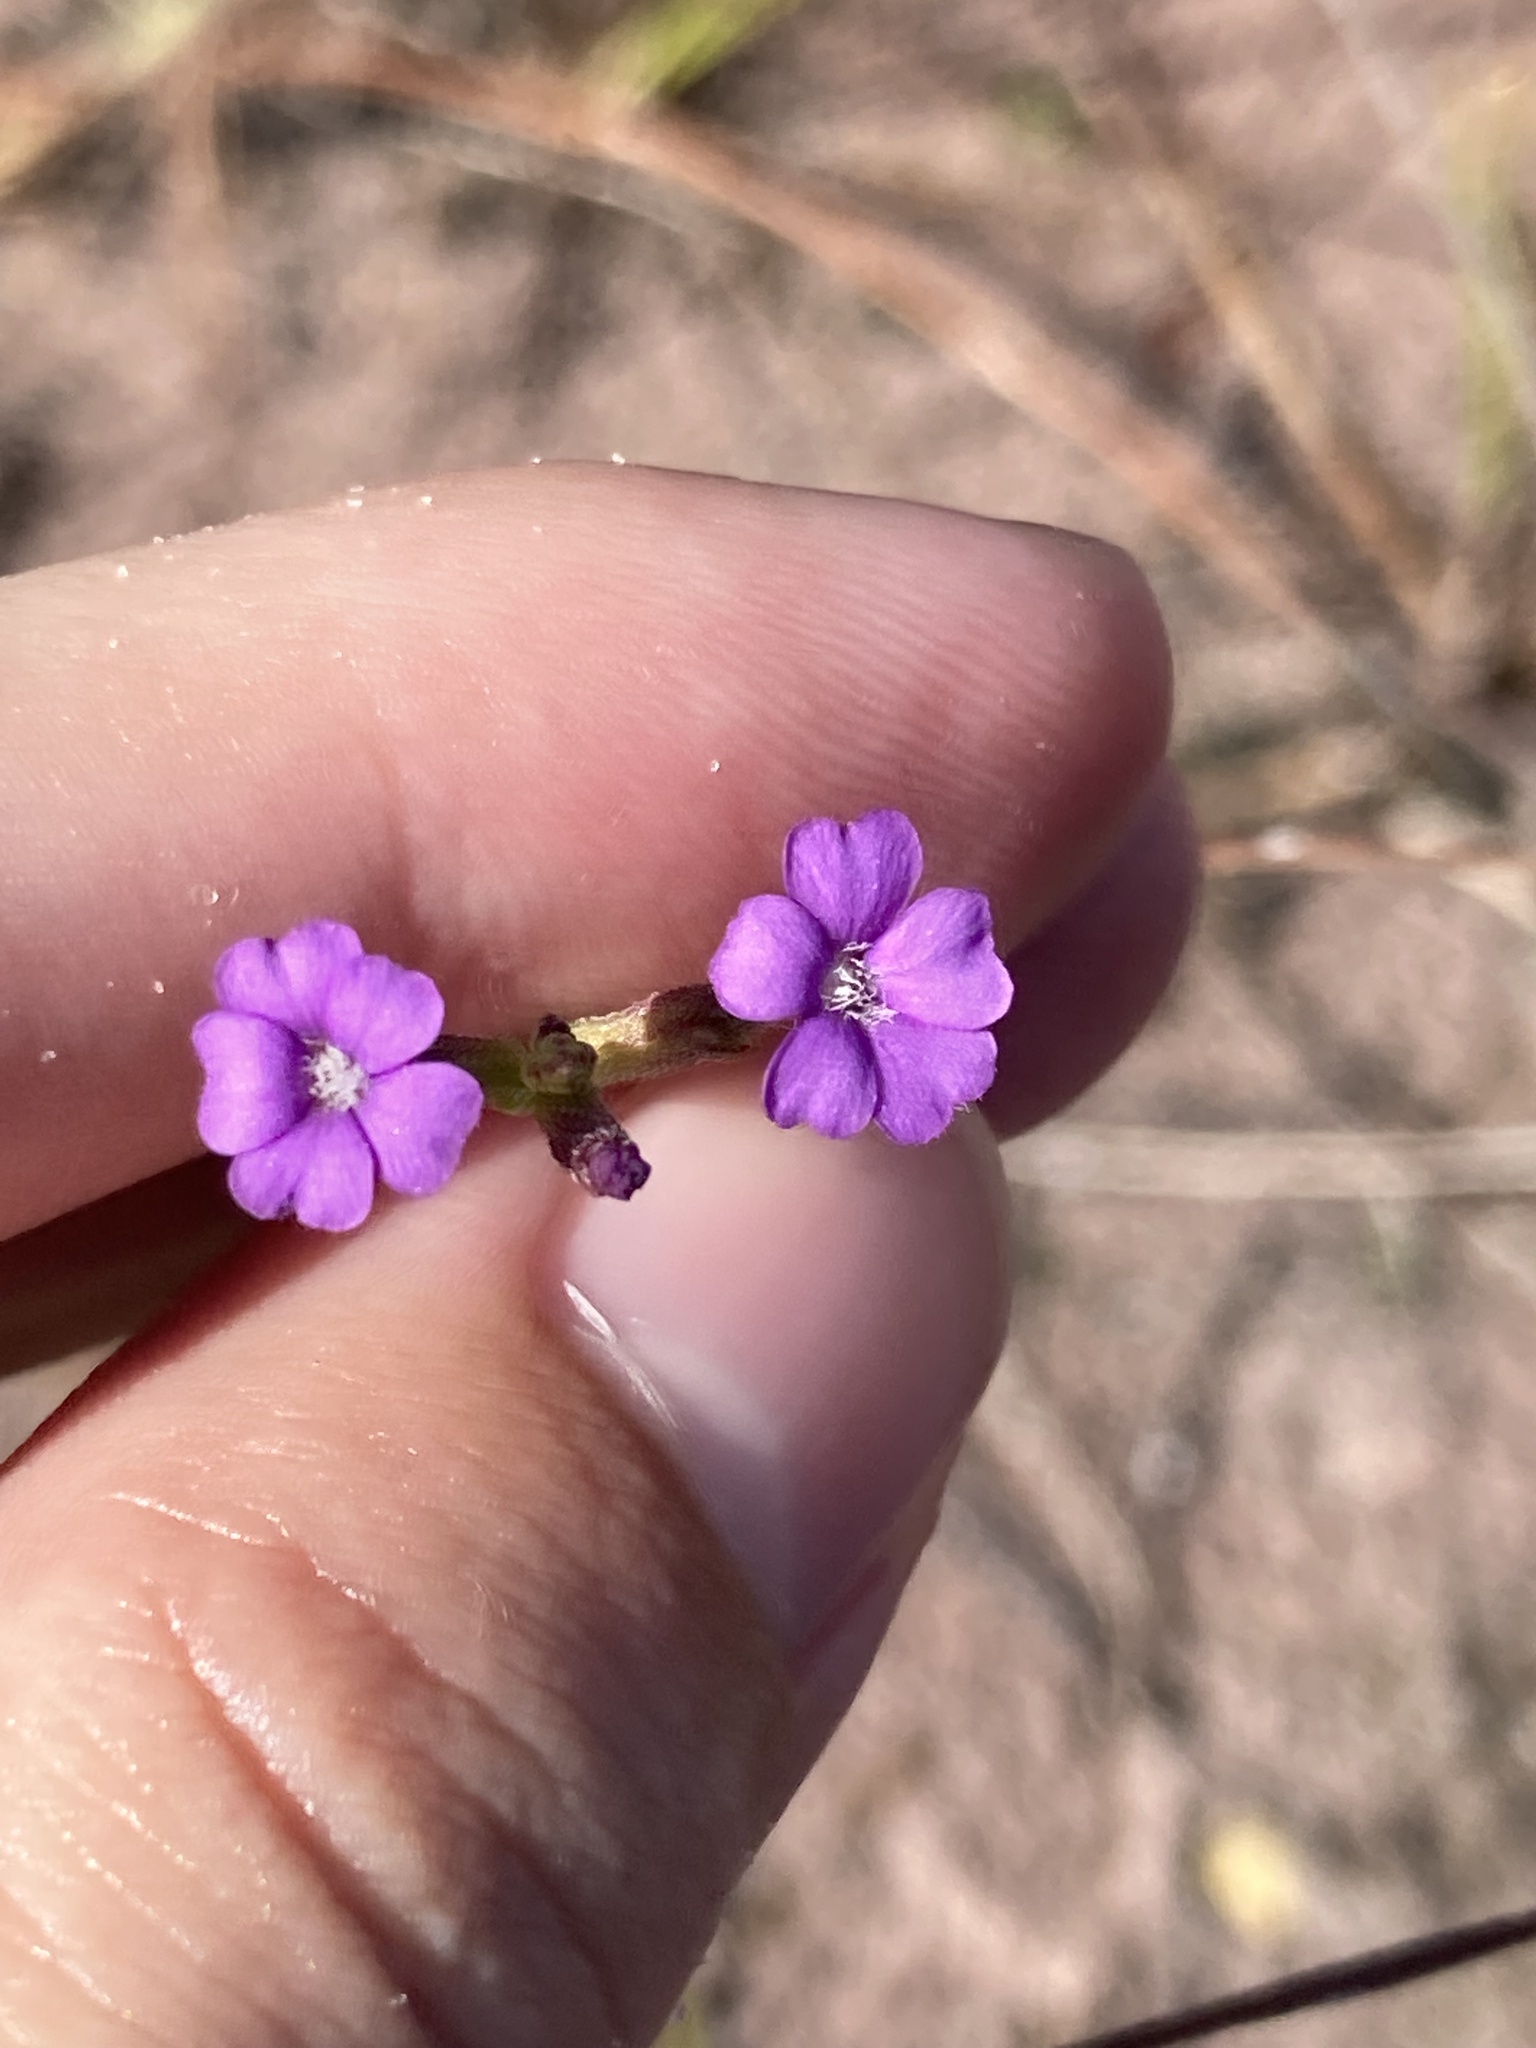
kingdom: Plantae
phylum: Tracheophyta
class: Magnoliopsida
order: Lamiales
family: Orobanchaceae
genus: Buchnera
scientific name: Buchnera floridana
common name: Florida bluehearts
